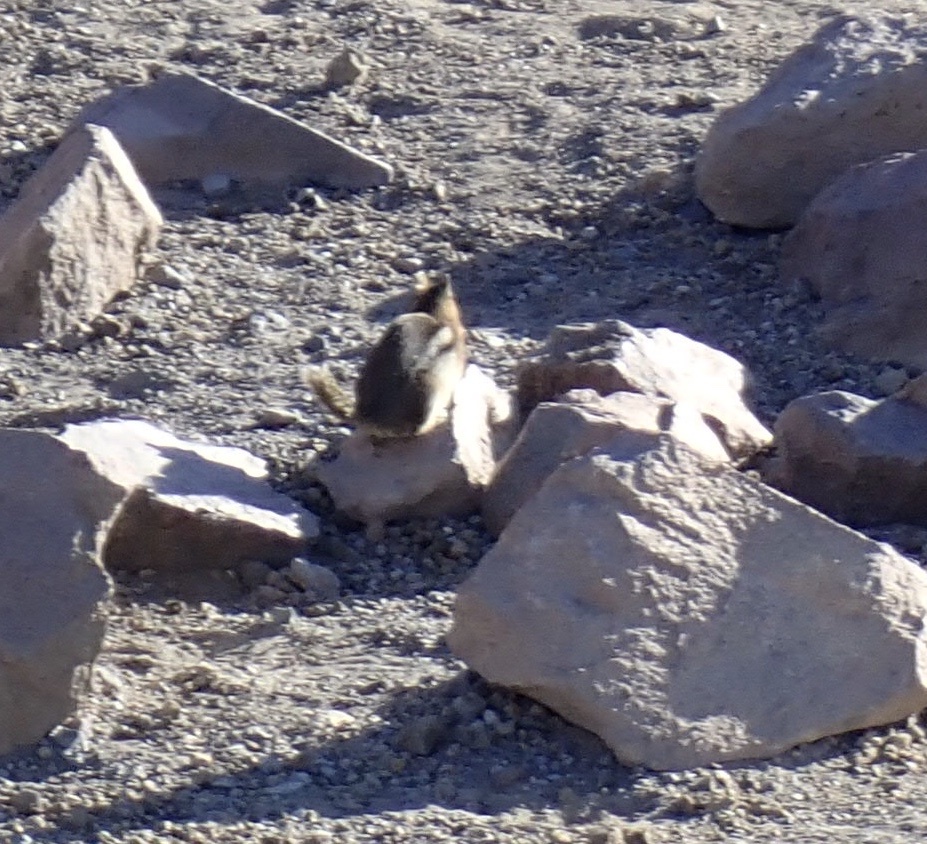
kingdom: Animalia
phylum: Chordata
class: Mammalia
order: Rodentia
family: Sciuridae
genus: Callospermophilus
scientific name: Callospermophilus saturatus
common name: Cascade golden-mantled ground squirrel
